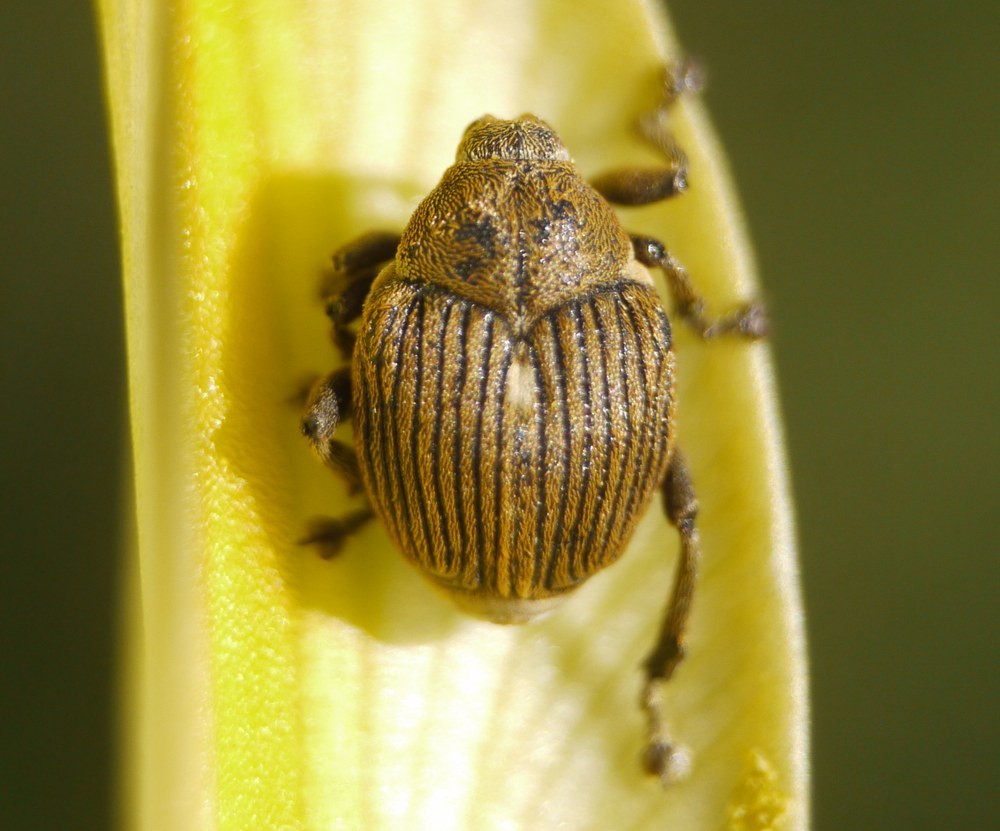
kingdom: Animalia
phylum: Arthropoda
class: Insecta
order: Coleoptera
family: Curculionidae
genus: Mononychus
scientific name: Mononychus punctumalbum
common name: Iris weevil
